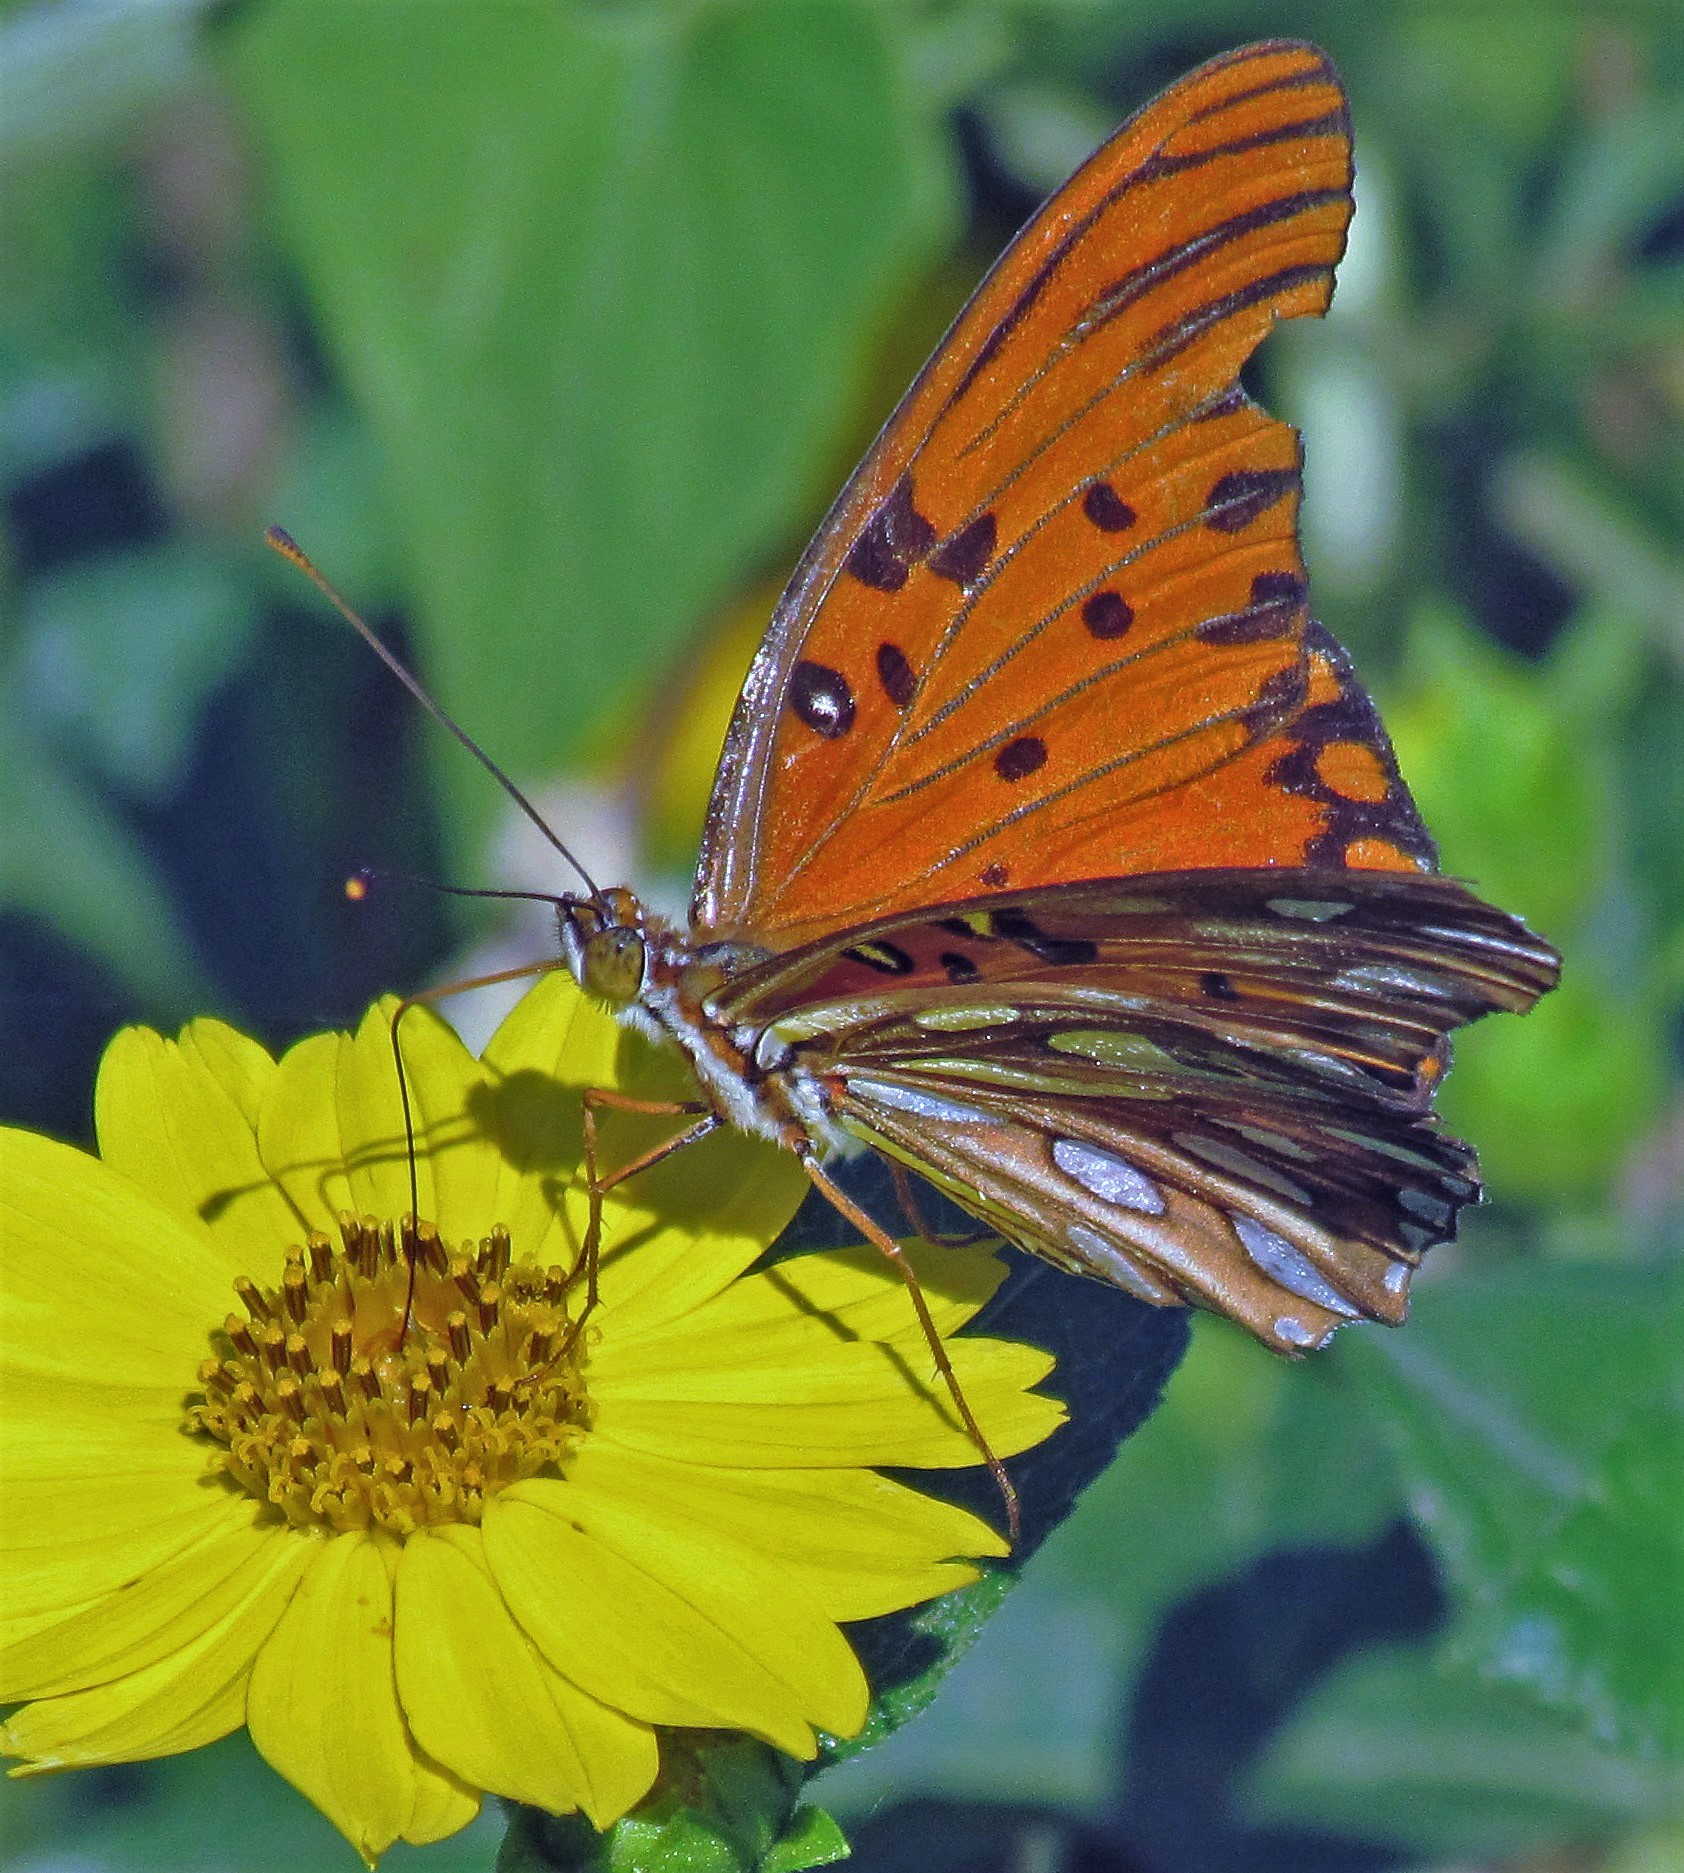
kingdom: Animalia
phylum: Arthropoda
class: Insecta
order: Lepidoptera
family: Nymphalidae
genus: Dione
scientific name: Dione vanillae
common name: Gulf fritillary
